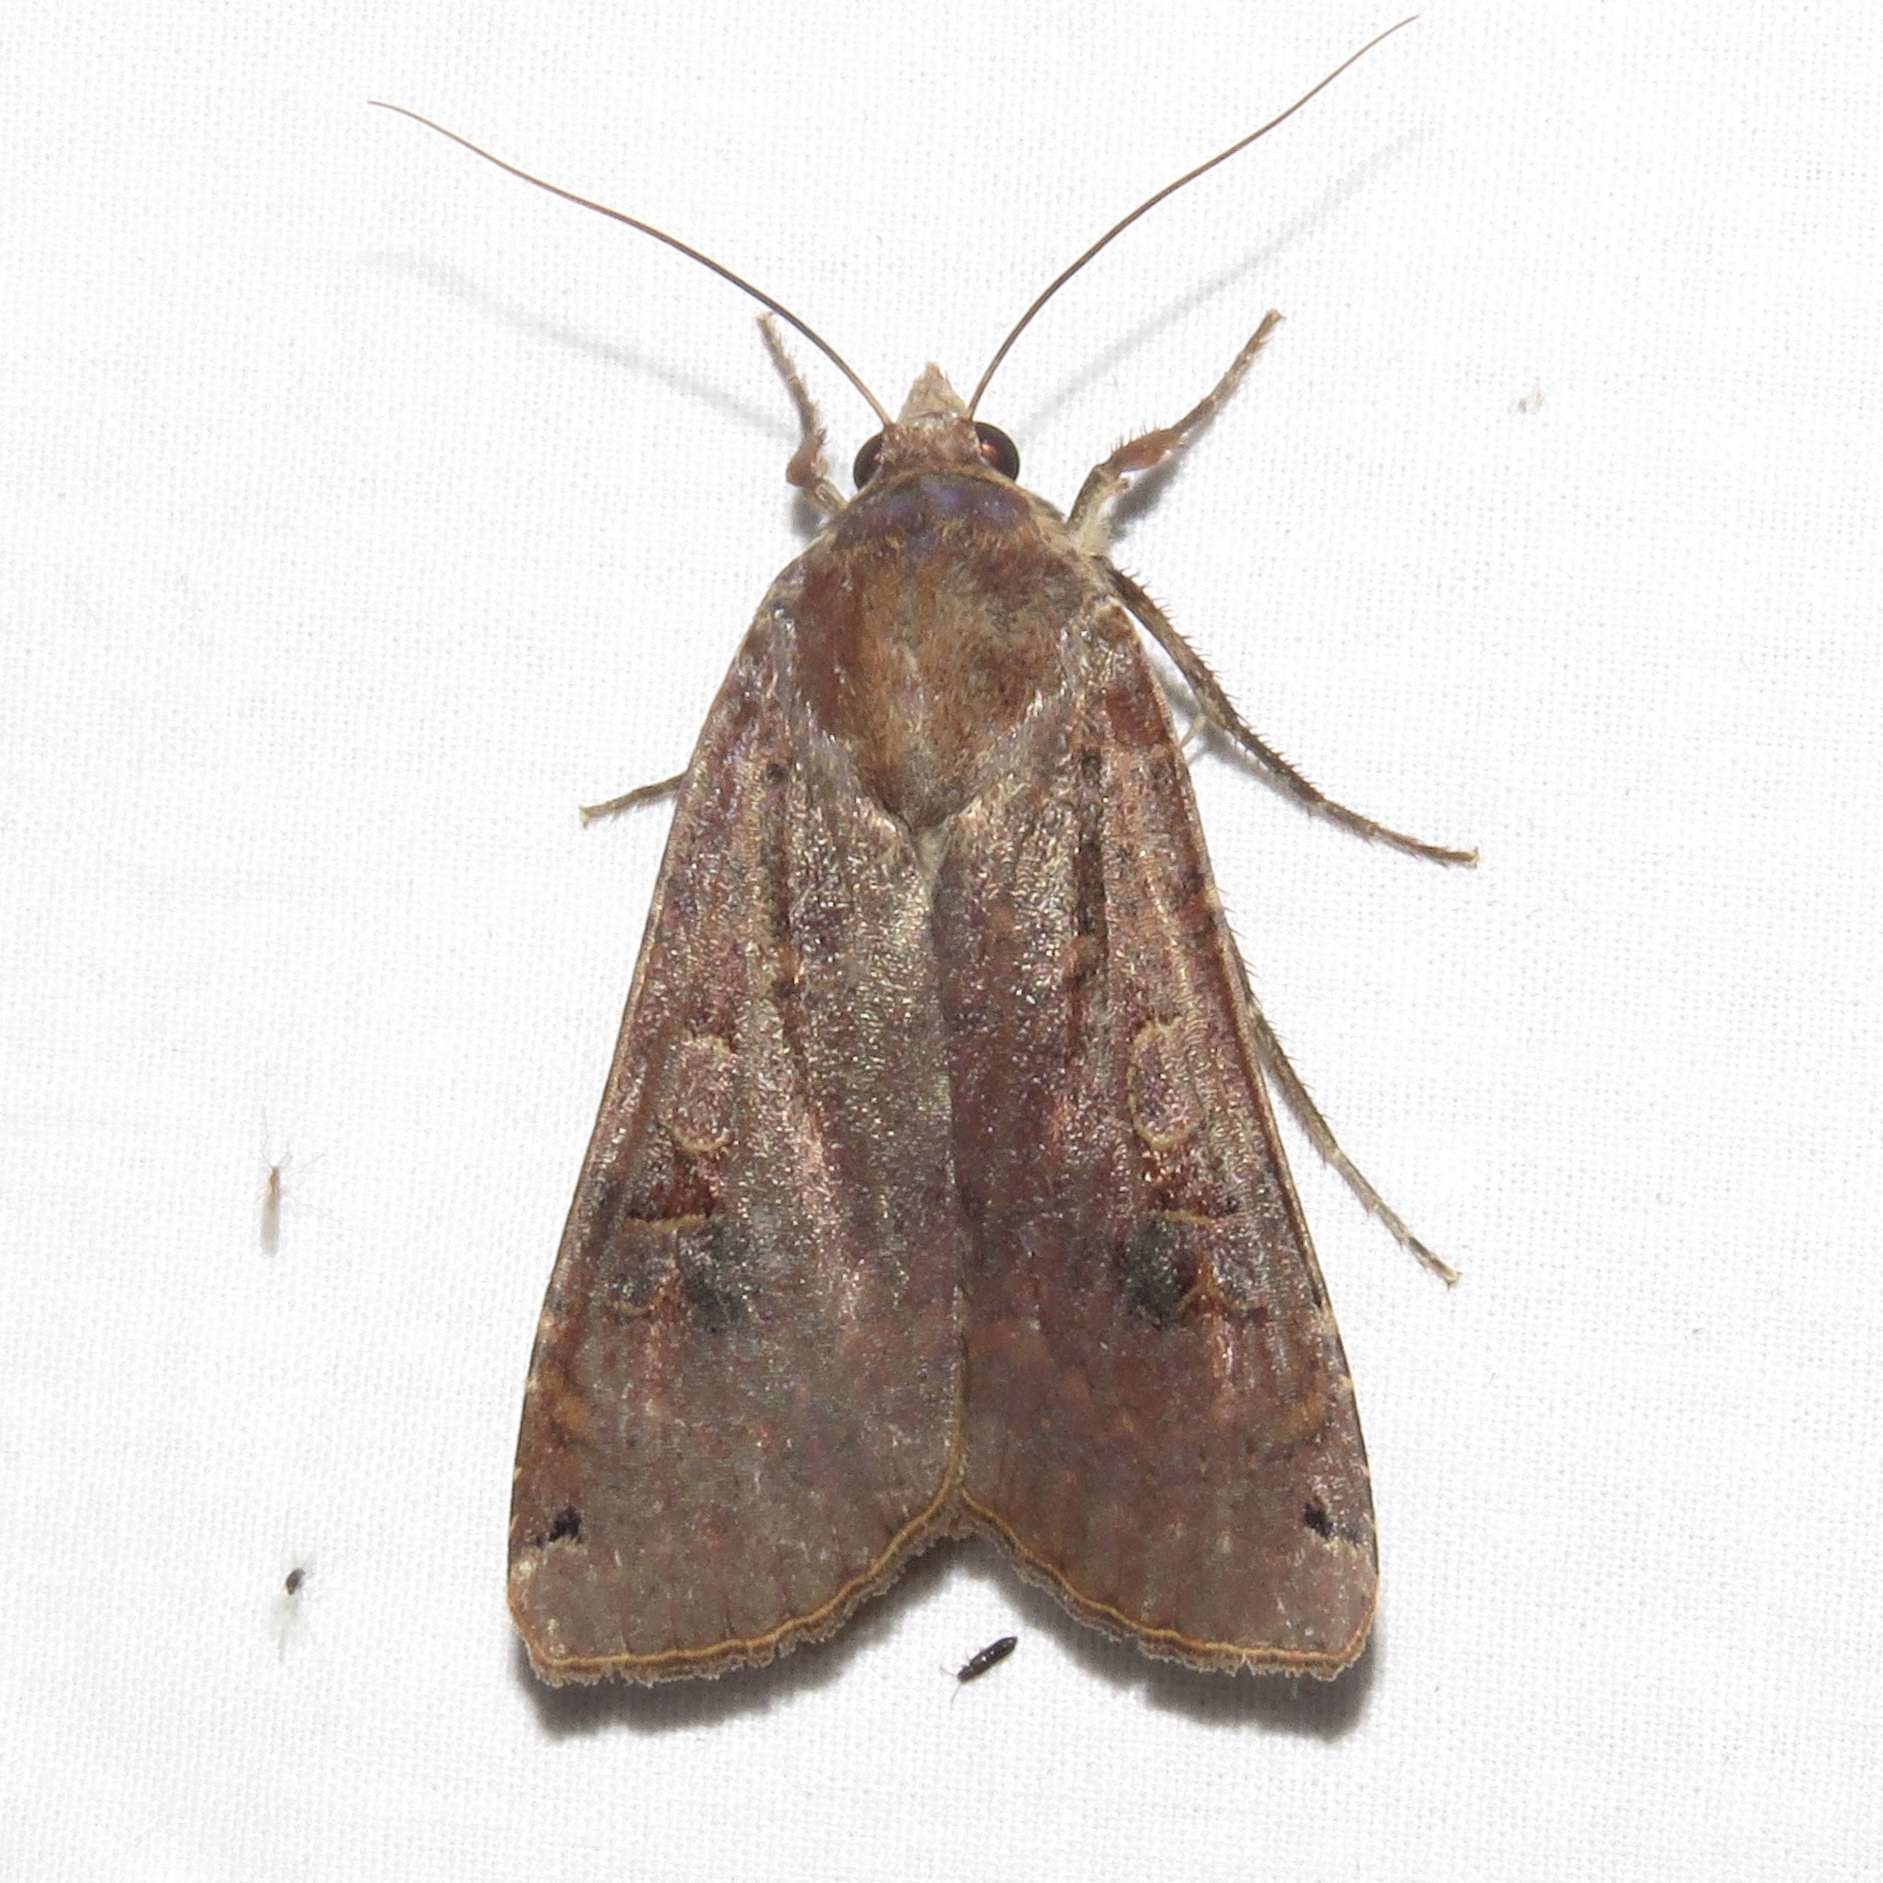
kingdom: Animalia
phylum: Arthropoda
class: Insecta
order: Lepidoptera
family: Noctuidae
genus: Noctua
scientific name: Noctua pronuba
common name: Large yellow underwing
